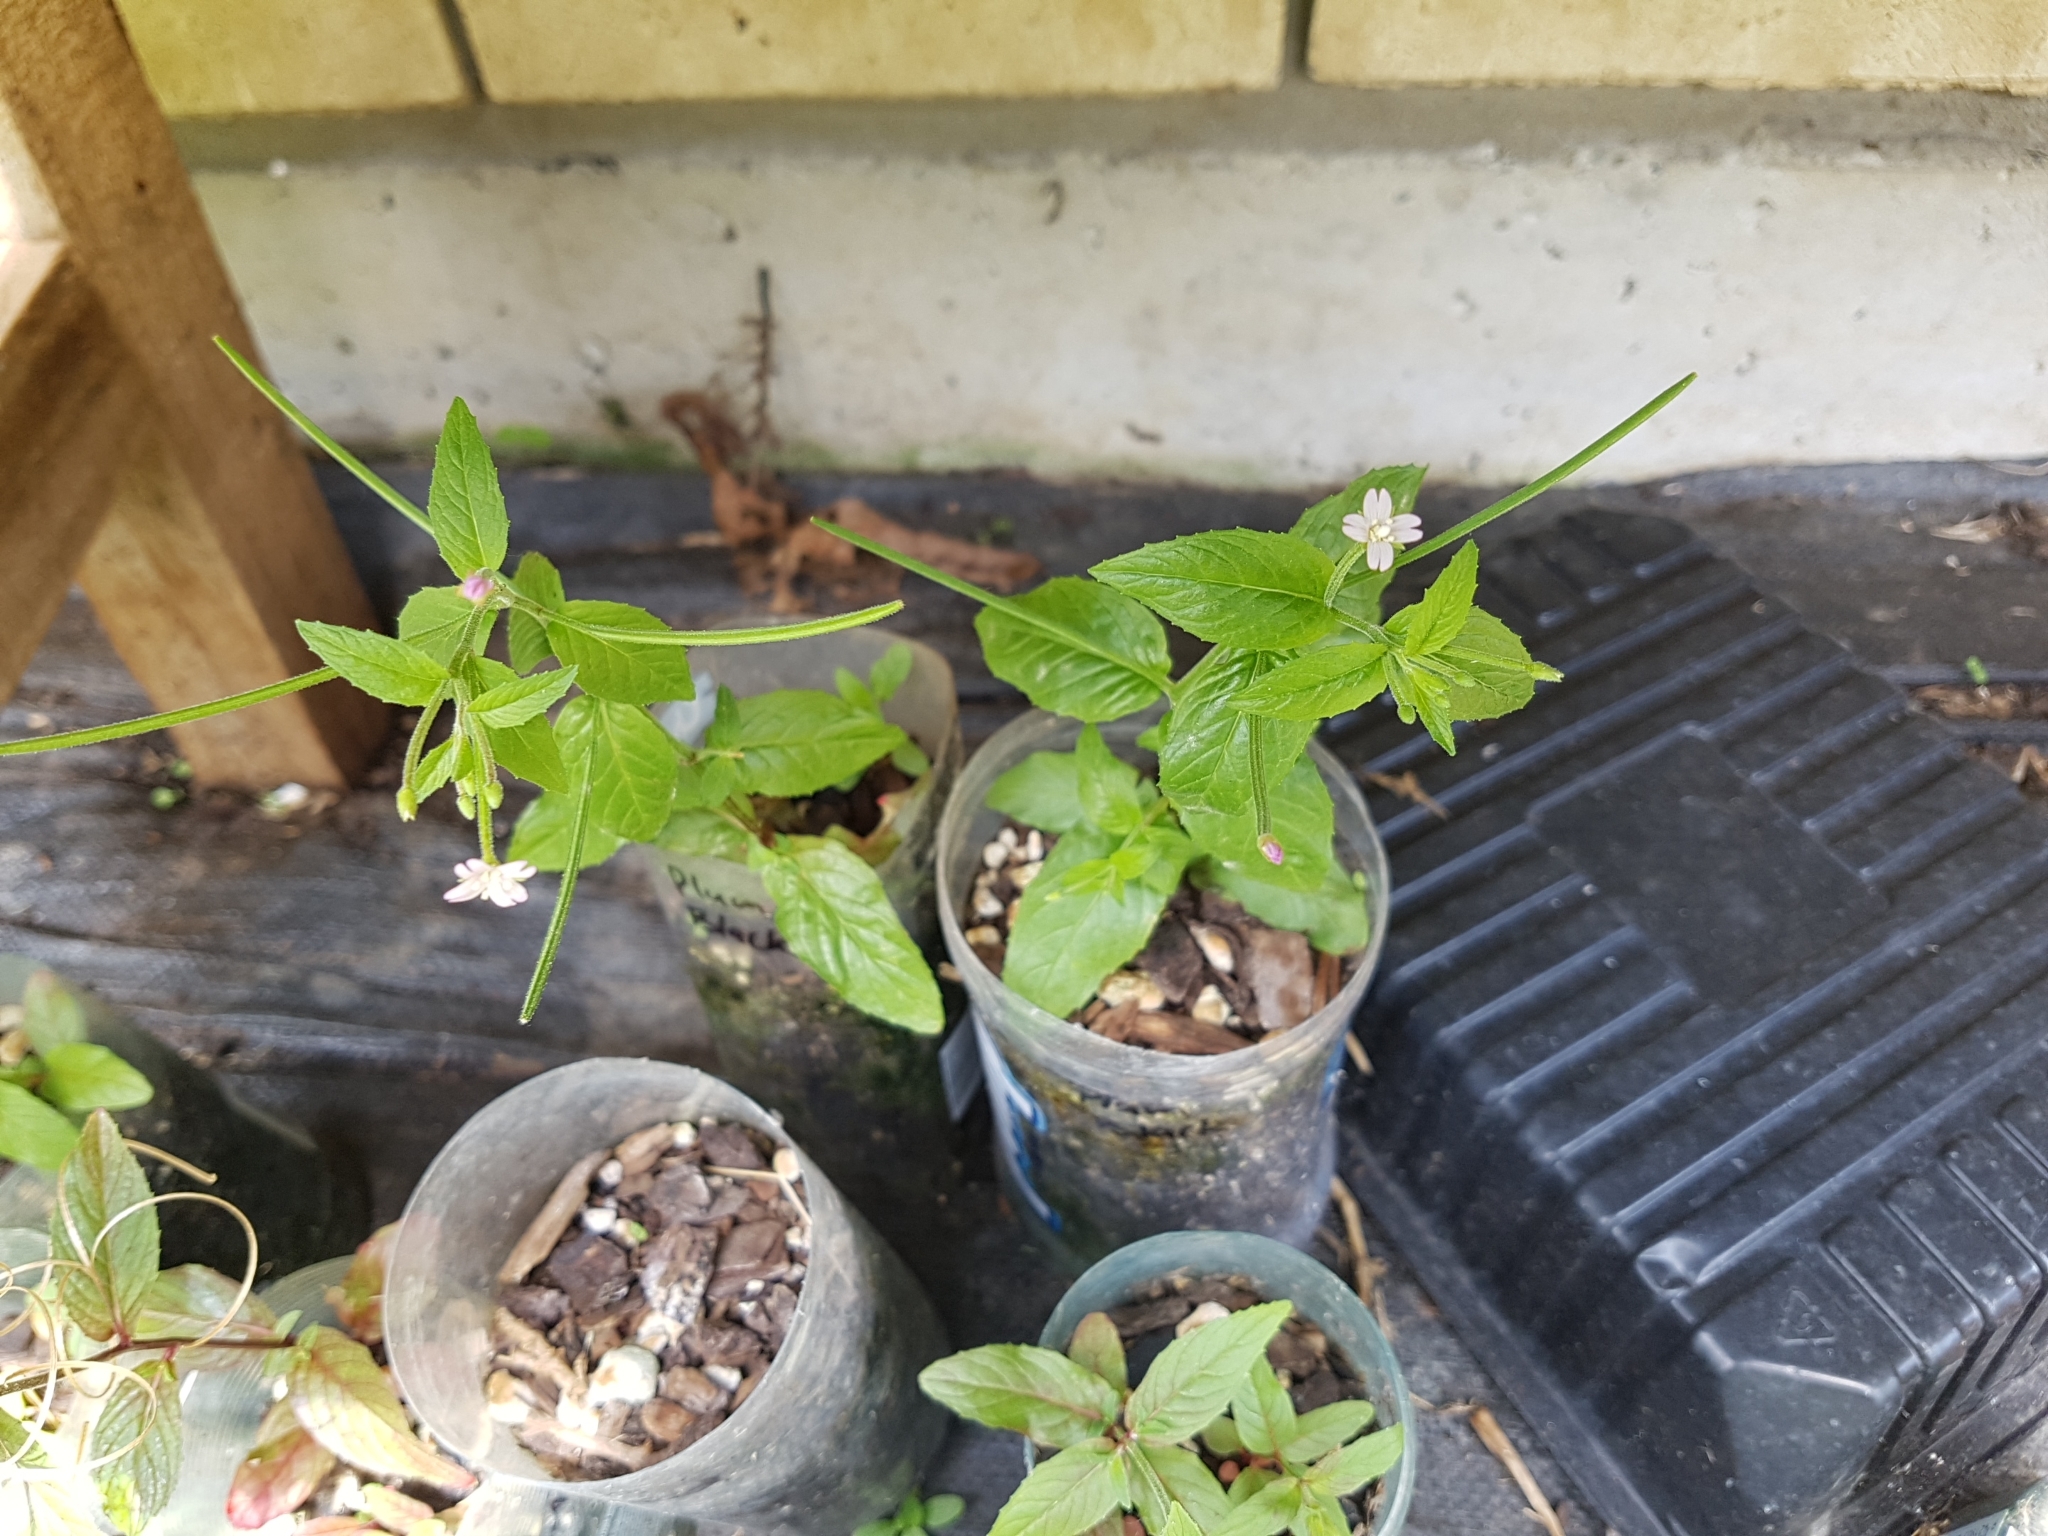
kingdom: Plantae
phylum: Tracheophyta
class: Magnoliopsida
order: Myrtales
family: Onagraceae
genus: Epilobium
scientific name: Epilobium ciliatum
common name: American willowherb
